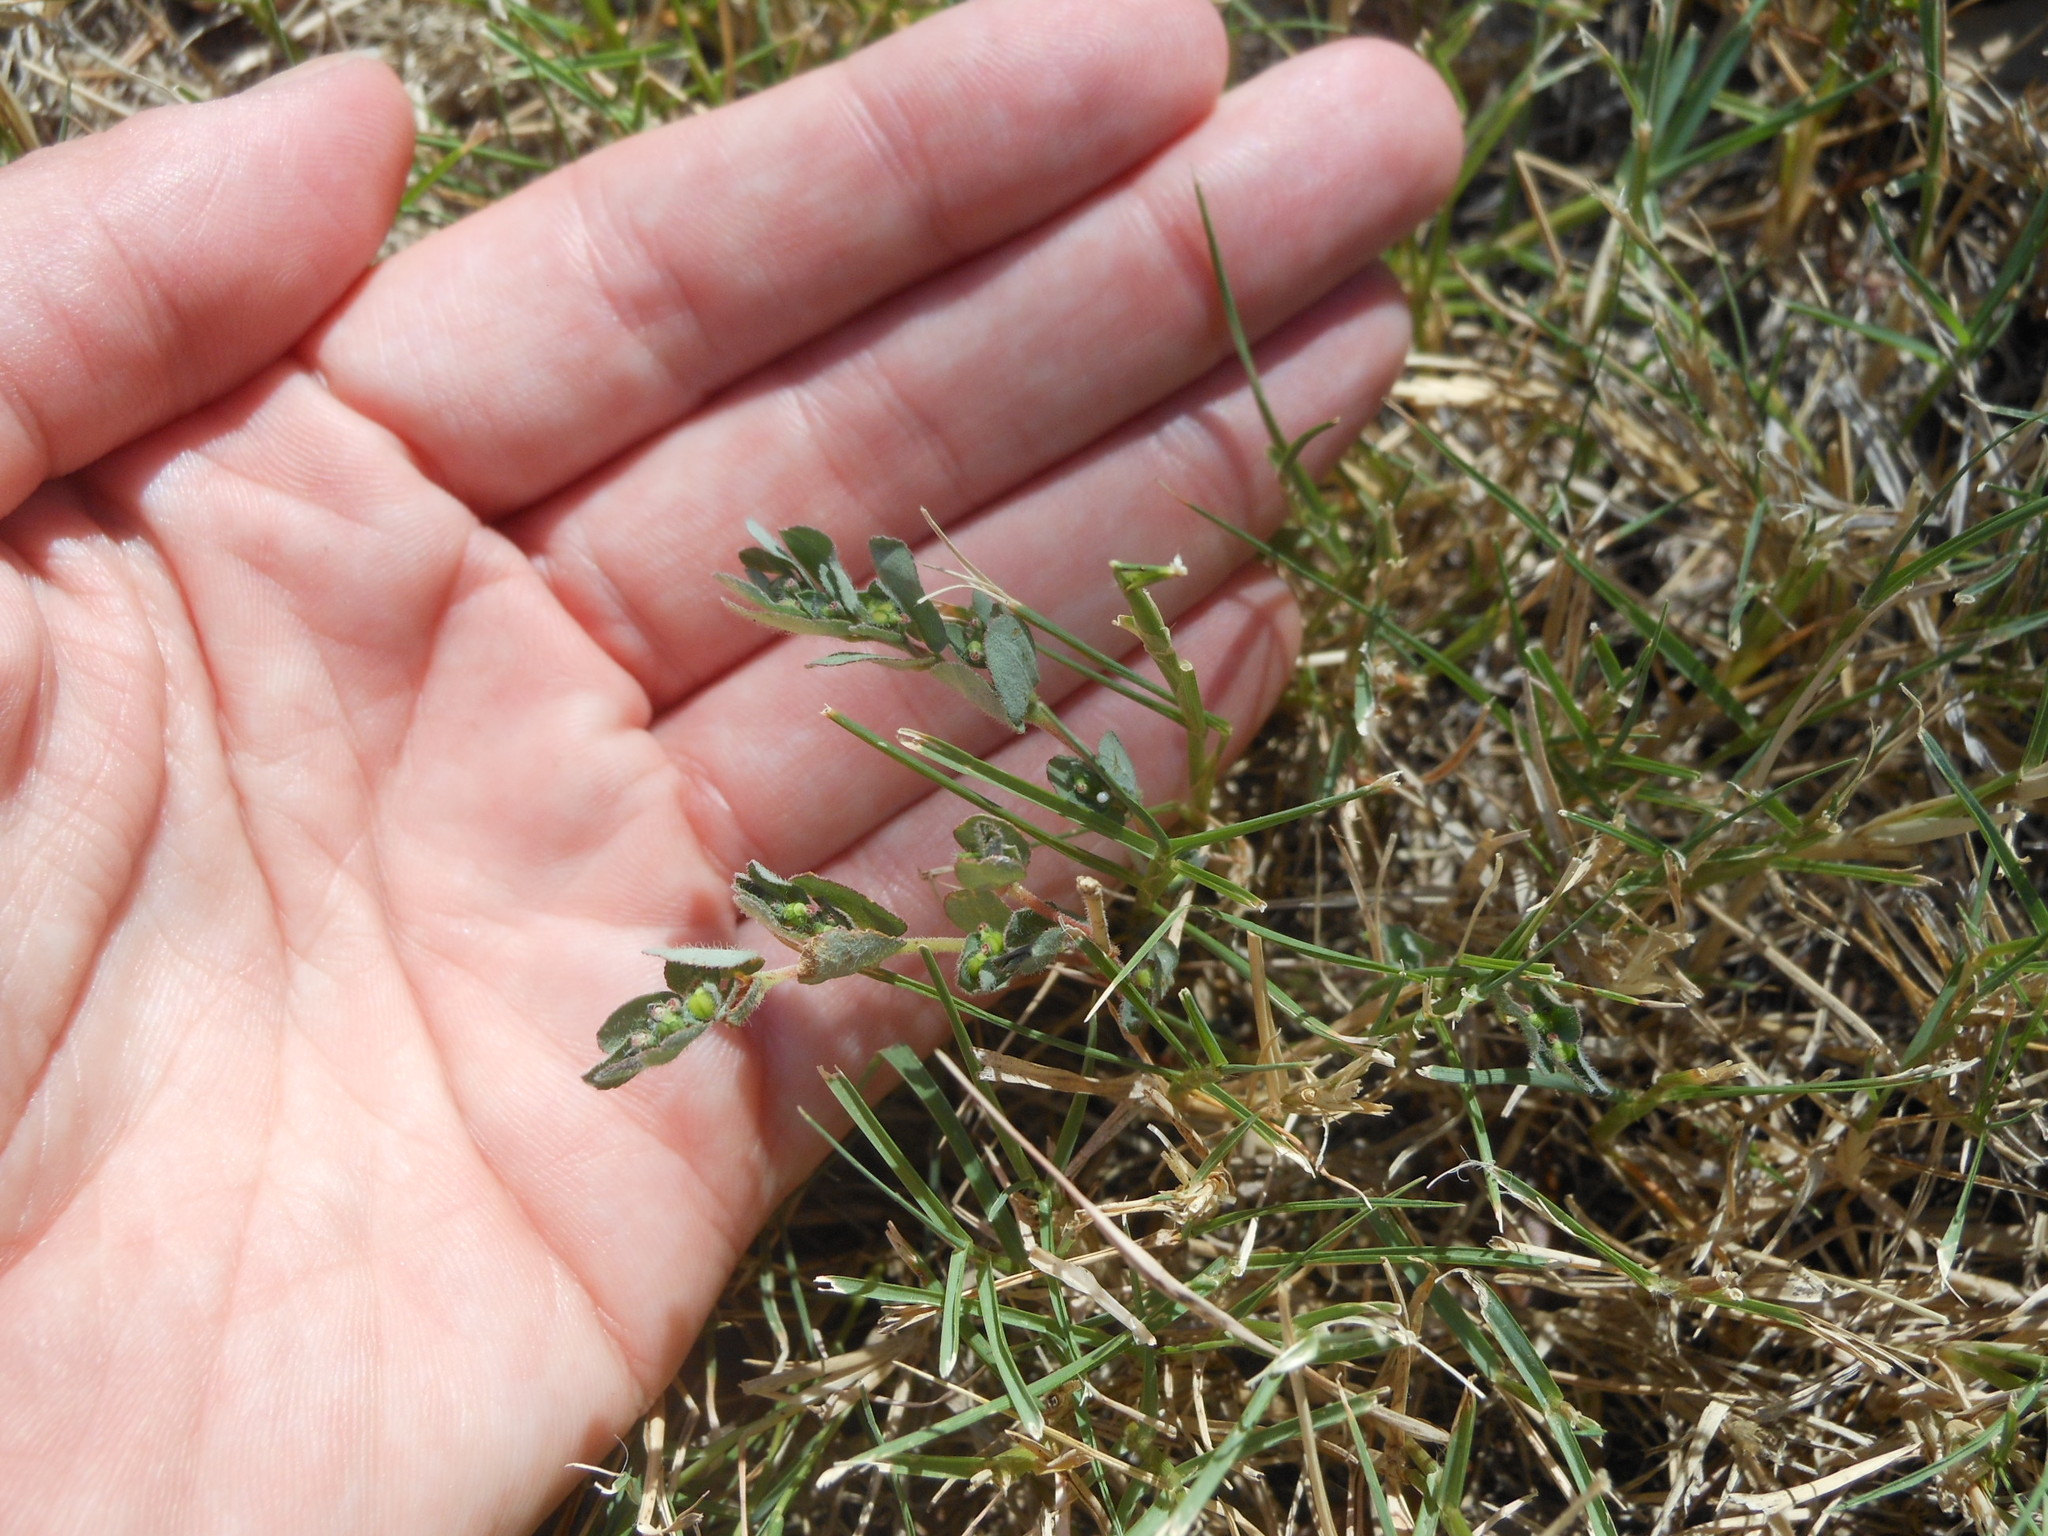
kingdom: Plantae
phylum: Tracheophyta
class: Magnoliopsida
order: Malpighiales
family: Euphorbiaceae
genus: Euphorbia
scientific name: Euphorbia prostrata
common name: Prostrate sandmat
